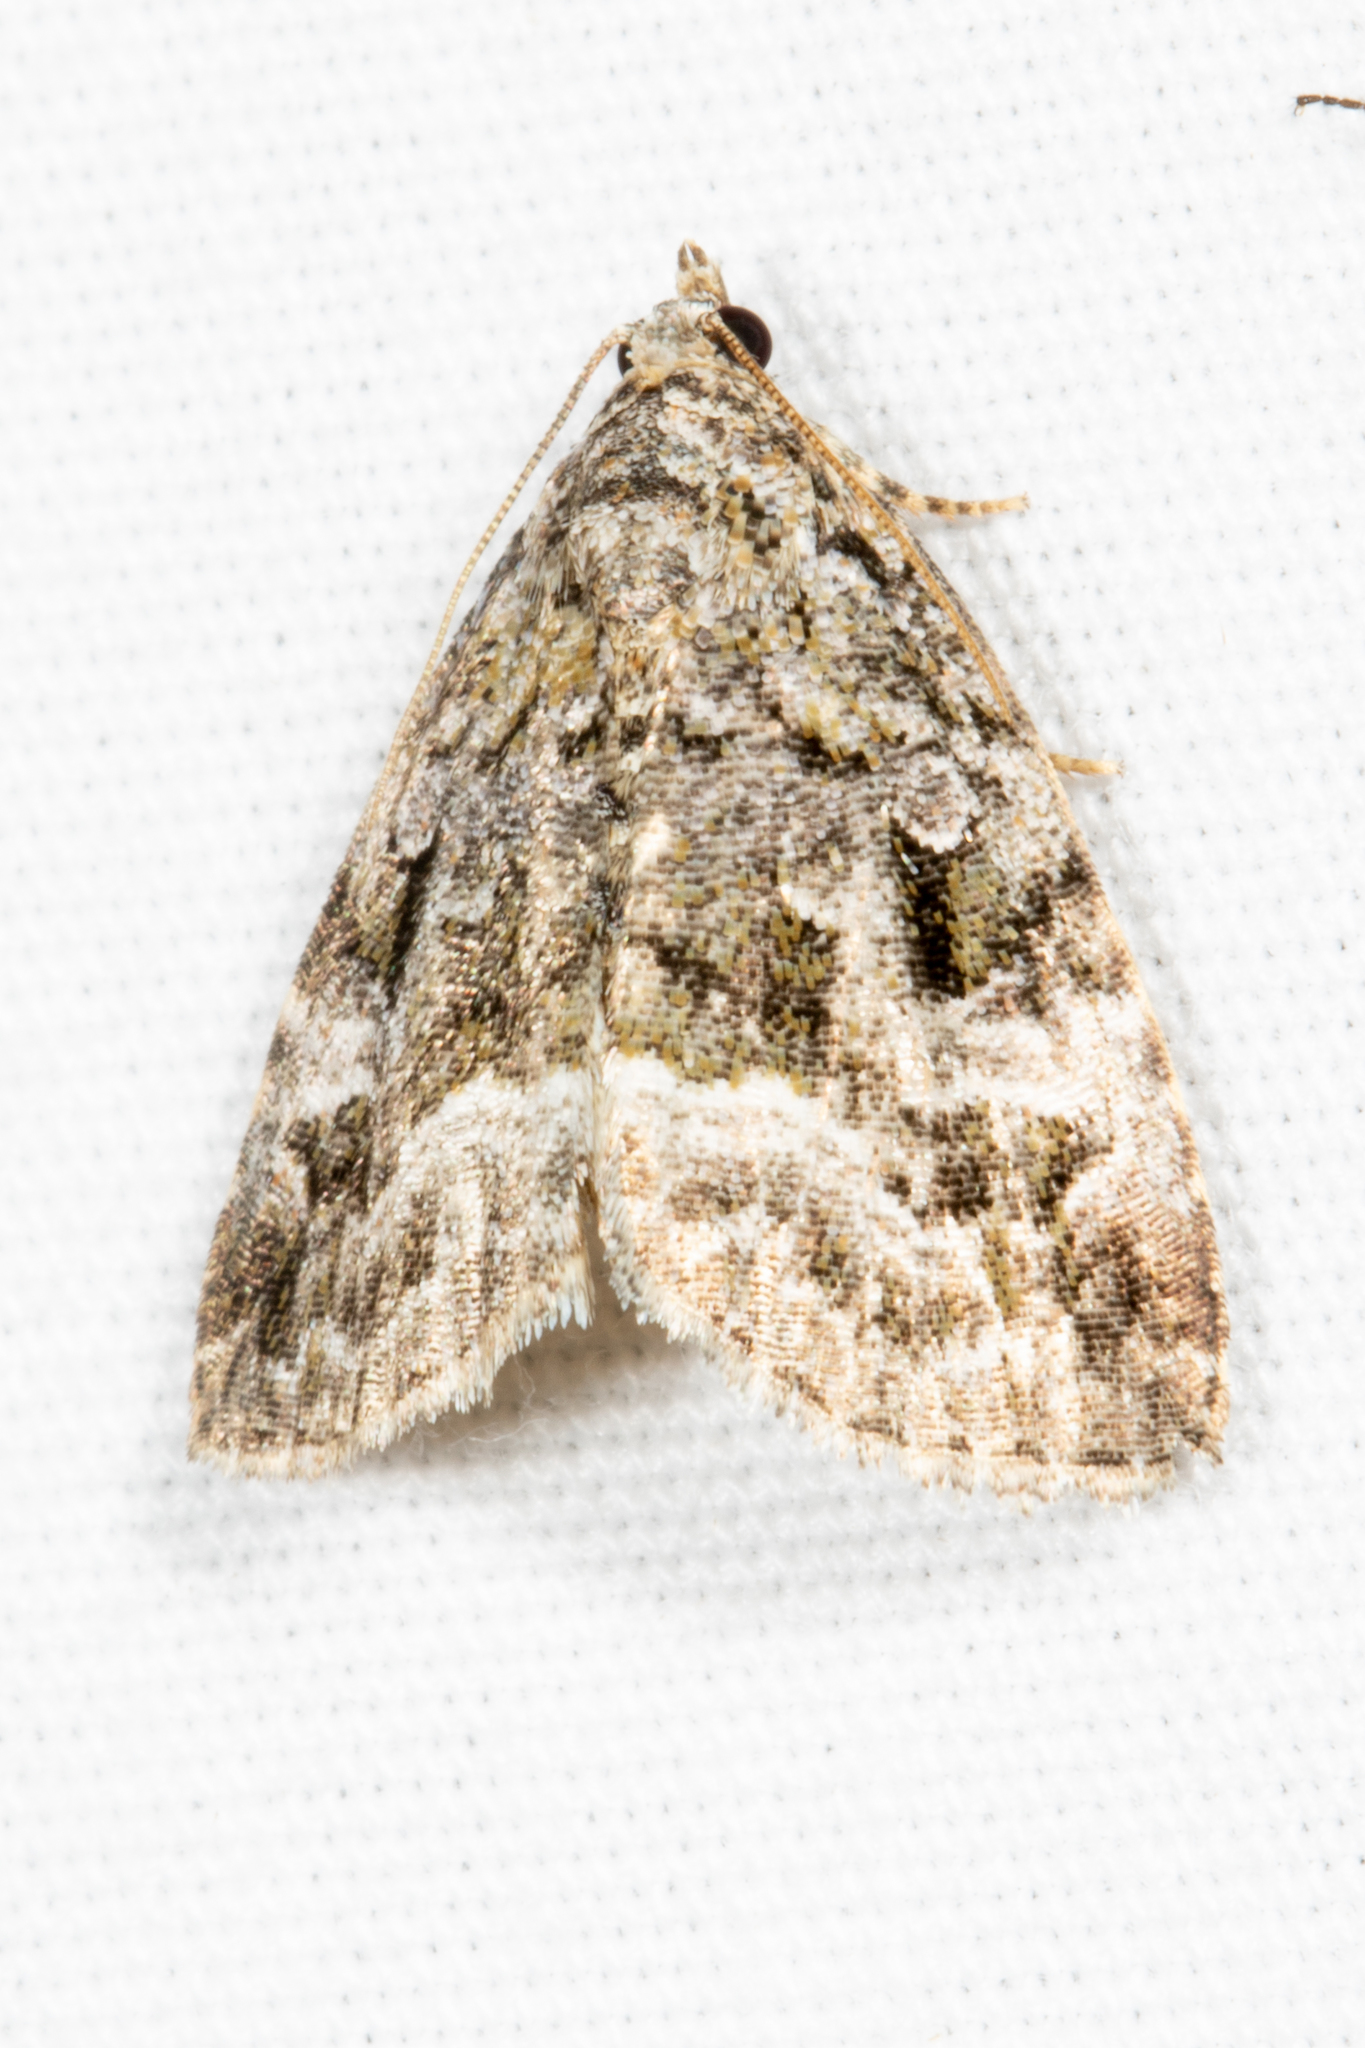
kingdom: Animalia
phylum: Arthropoda
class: Insecta
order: Lepidoptera
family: Noctuidae
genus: Protodeltote
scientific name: Protodeltote muscosula
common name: Large mossy glyph
